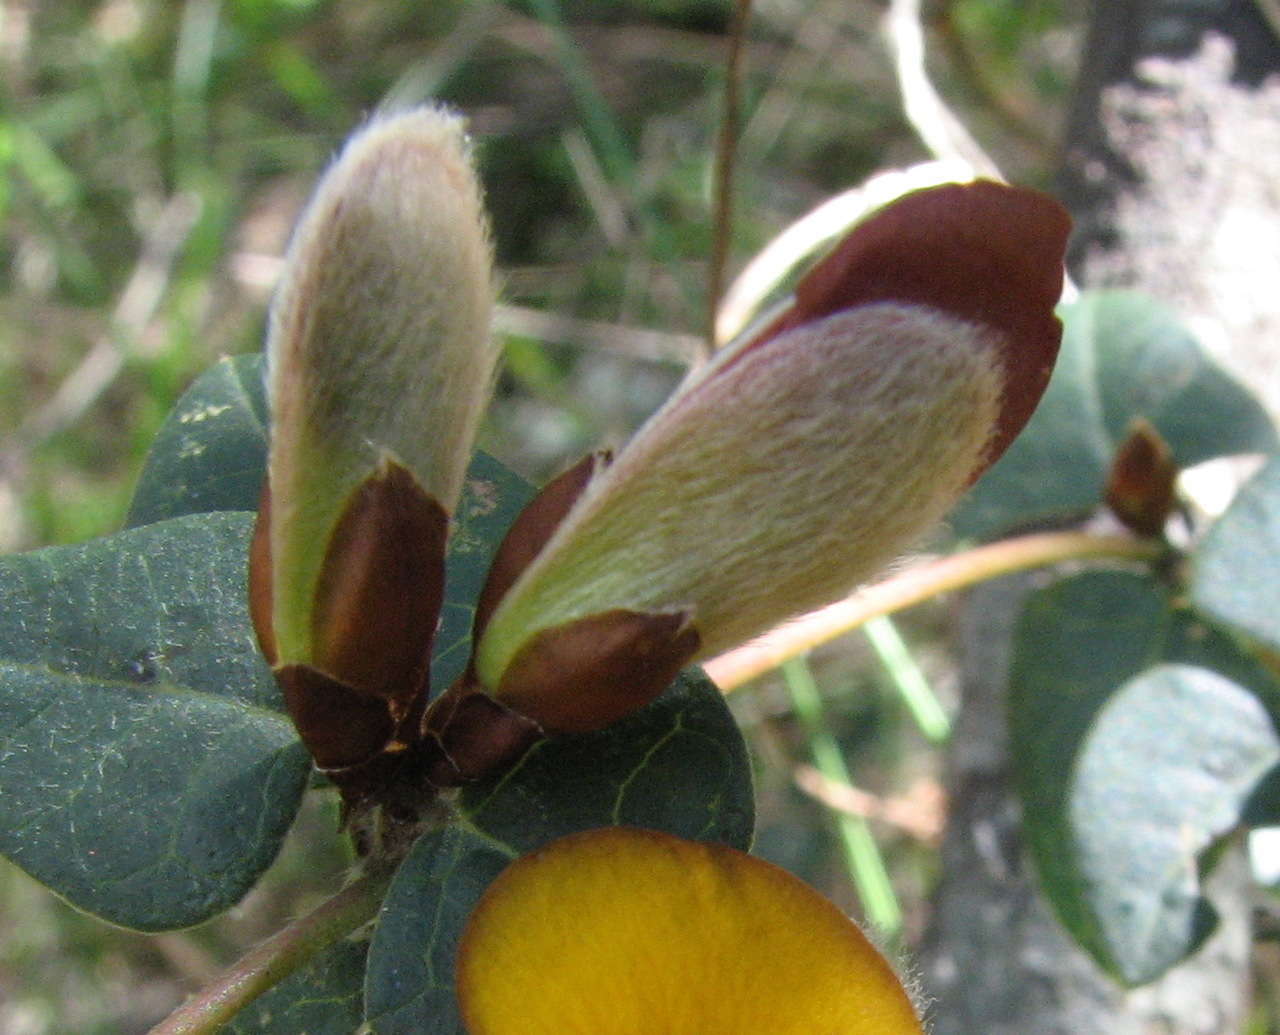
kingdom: Plantae
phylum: Tracheophyta
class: Magnoliopsida
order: Fabales
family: Fabaceae
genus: Platylobium
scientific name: Platylobium formosum
